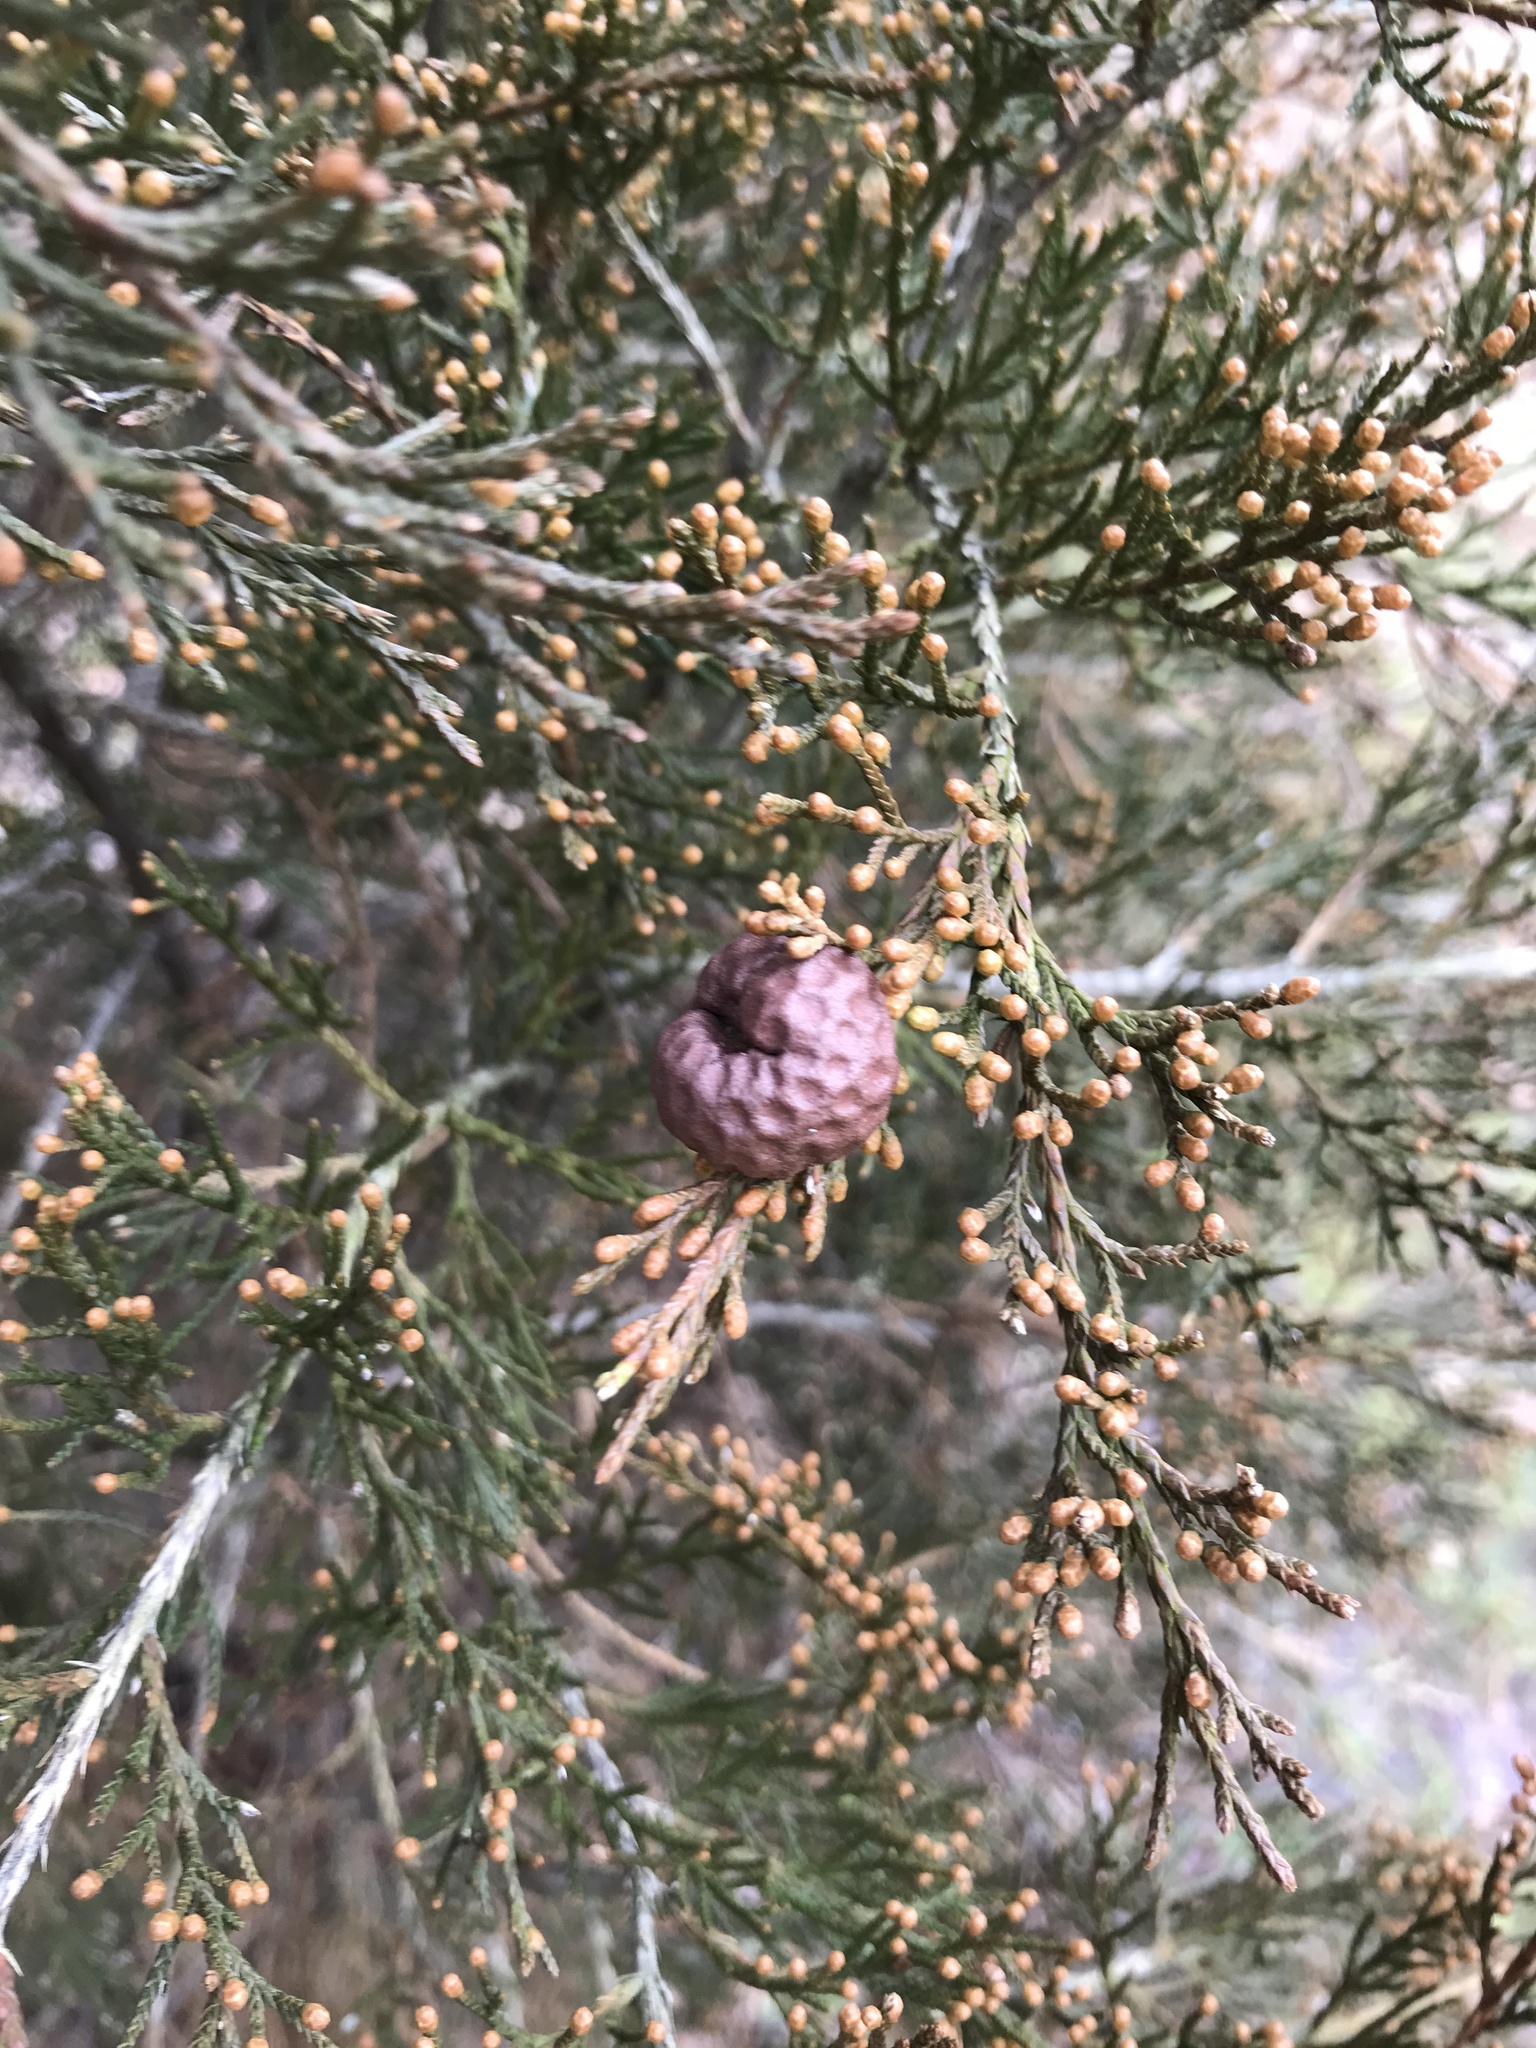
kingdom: Fungi
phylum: Basidiomycota
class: Pucciniomycetes
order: Pucciniales
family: Gymnosporangiaceae
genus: Gymnosporangium
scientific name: Gymnosporangium juniperi-virginianae
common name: Juniper-apple rust
